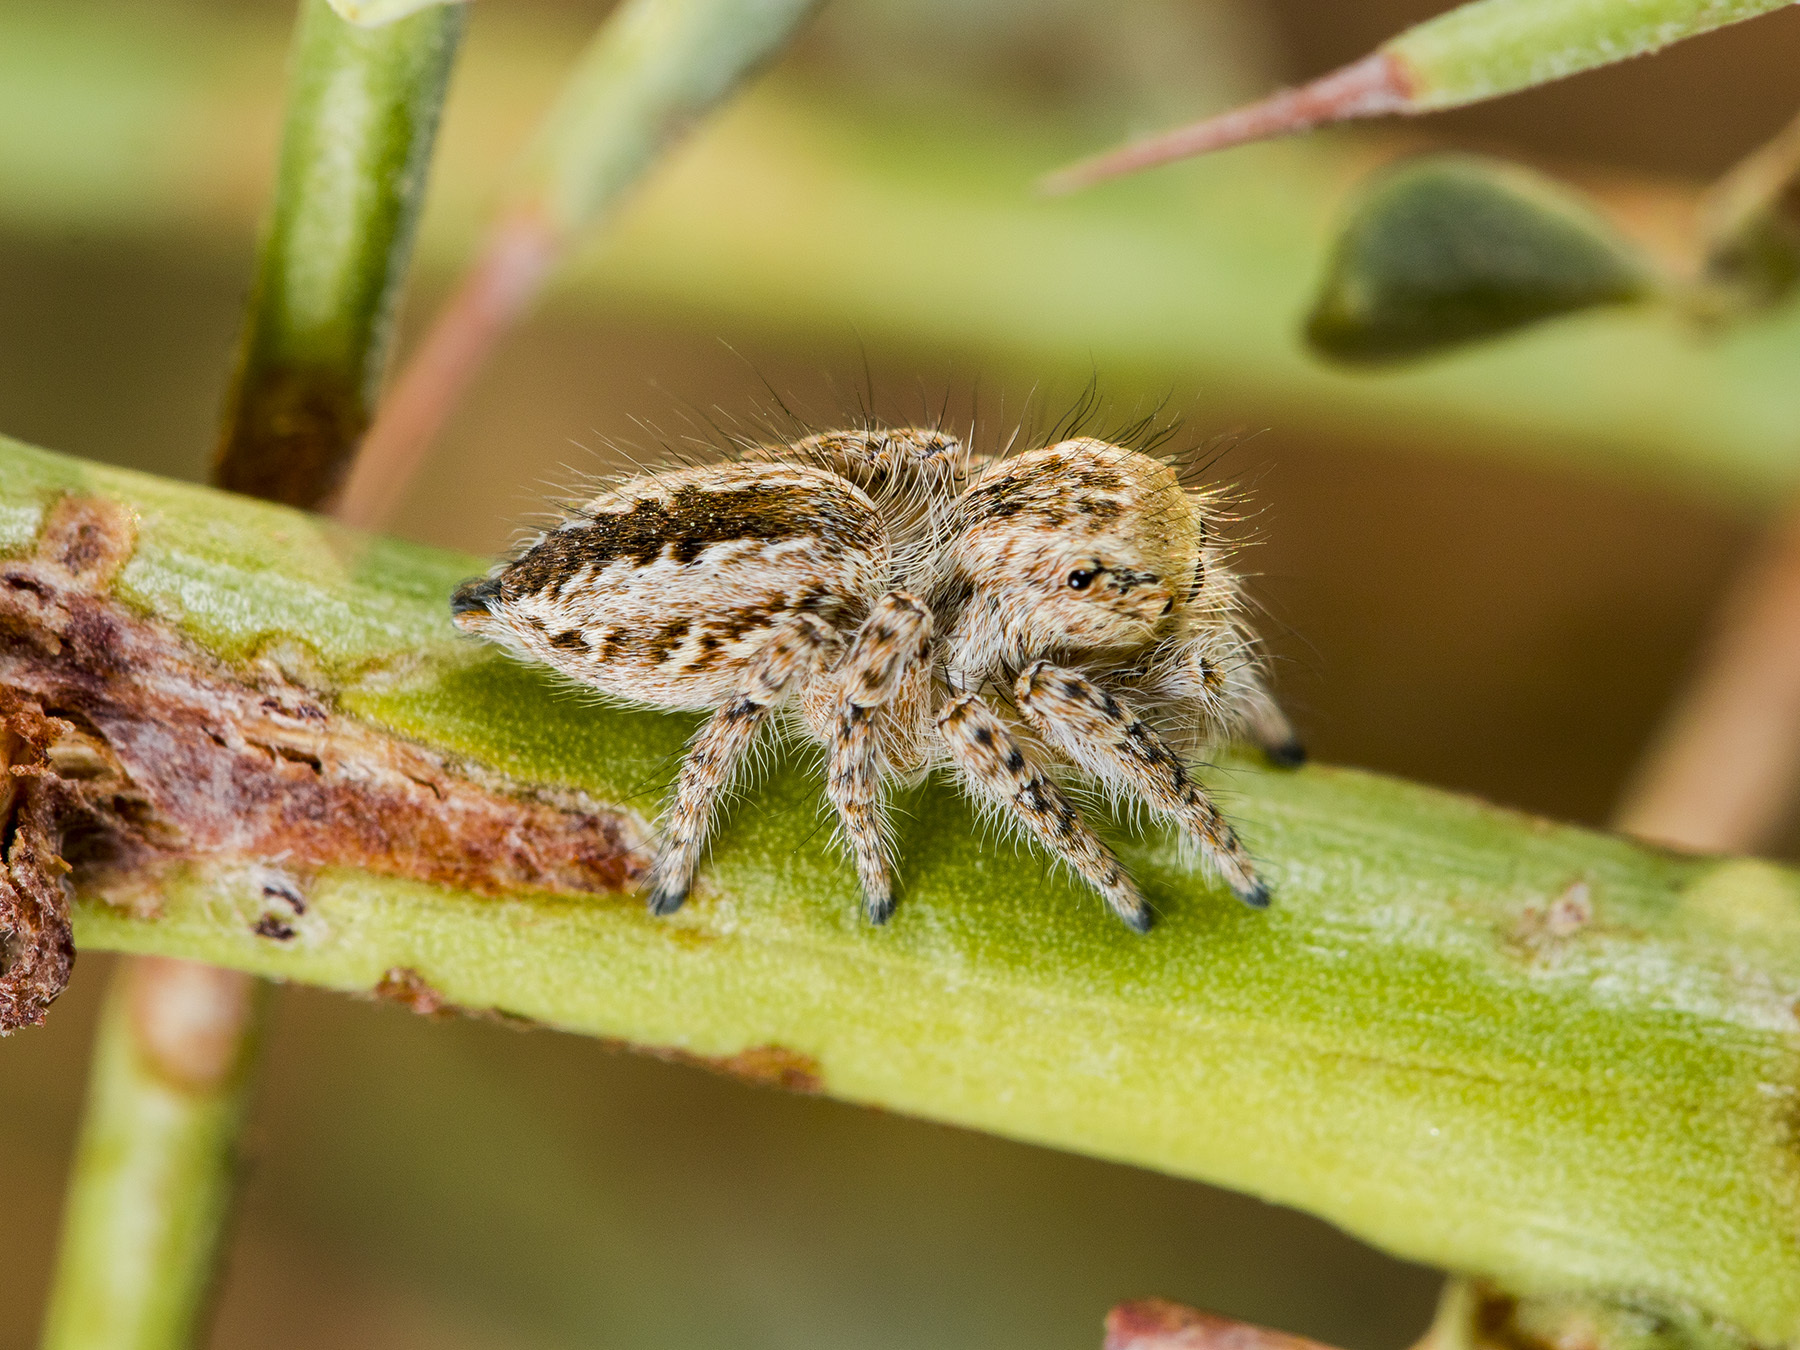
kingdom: Animalia
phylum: Arthropoda
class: Arachnida
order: Araneae
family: Salticidae
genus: Mogrus
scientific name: Mogrus larisae
